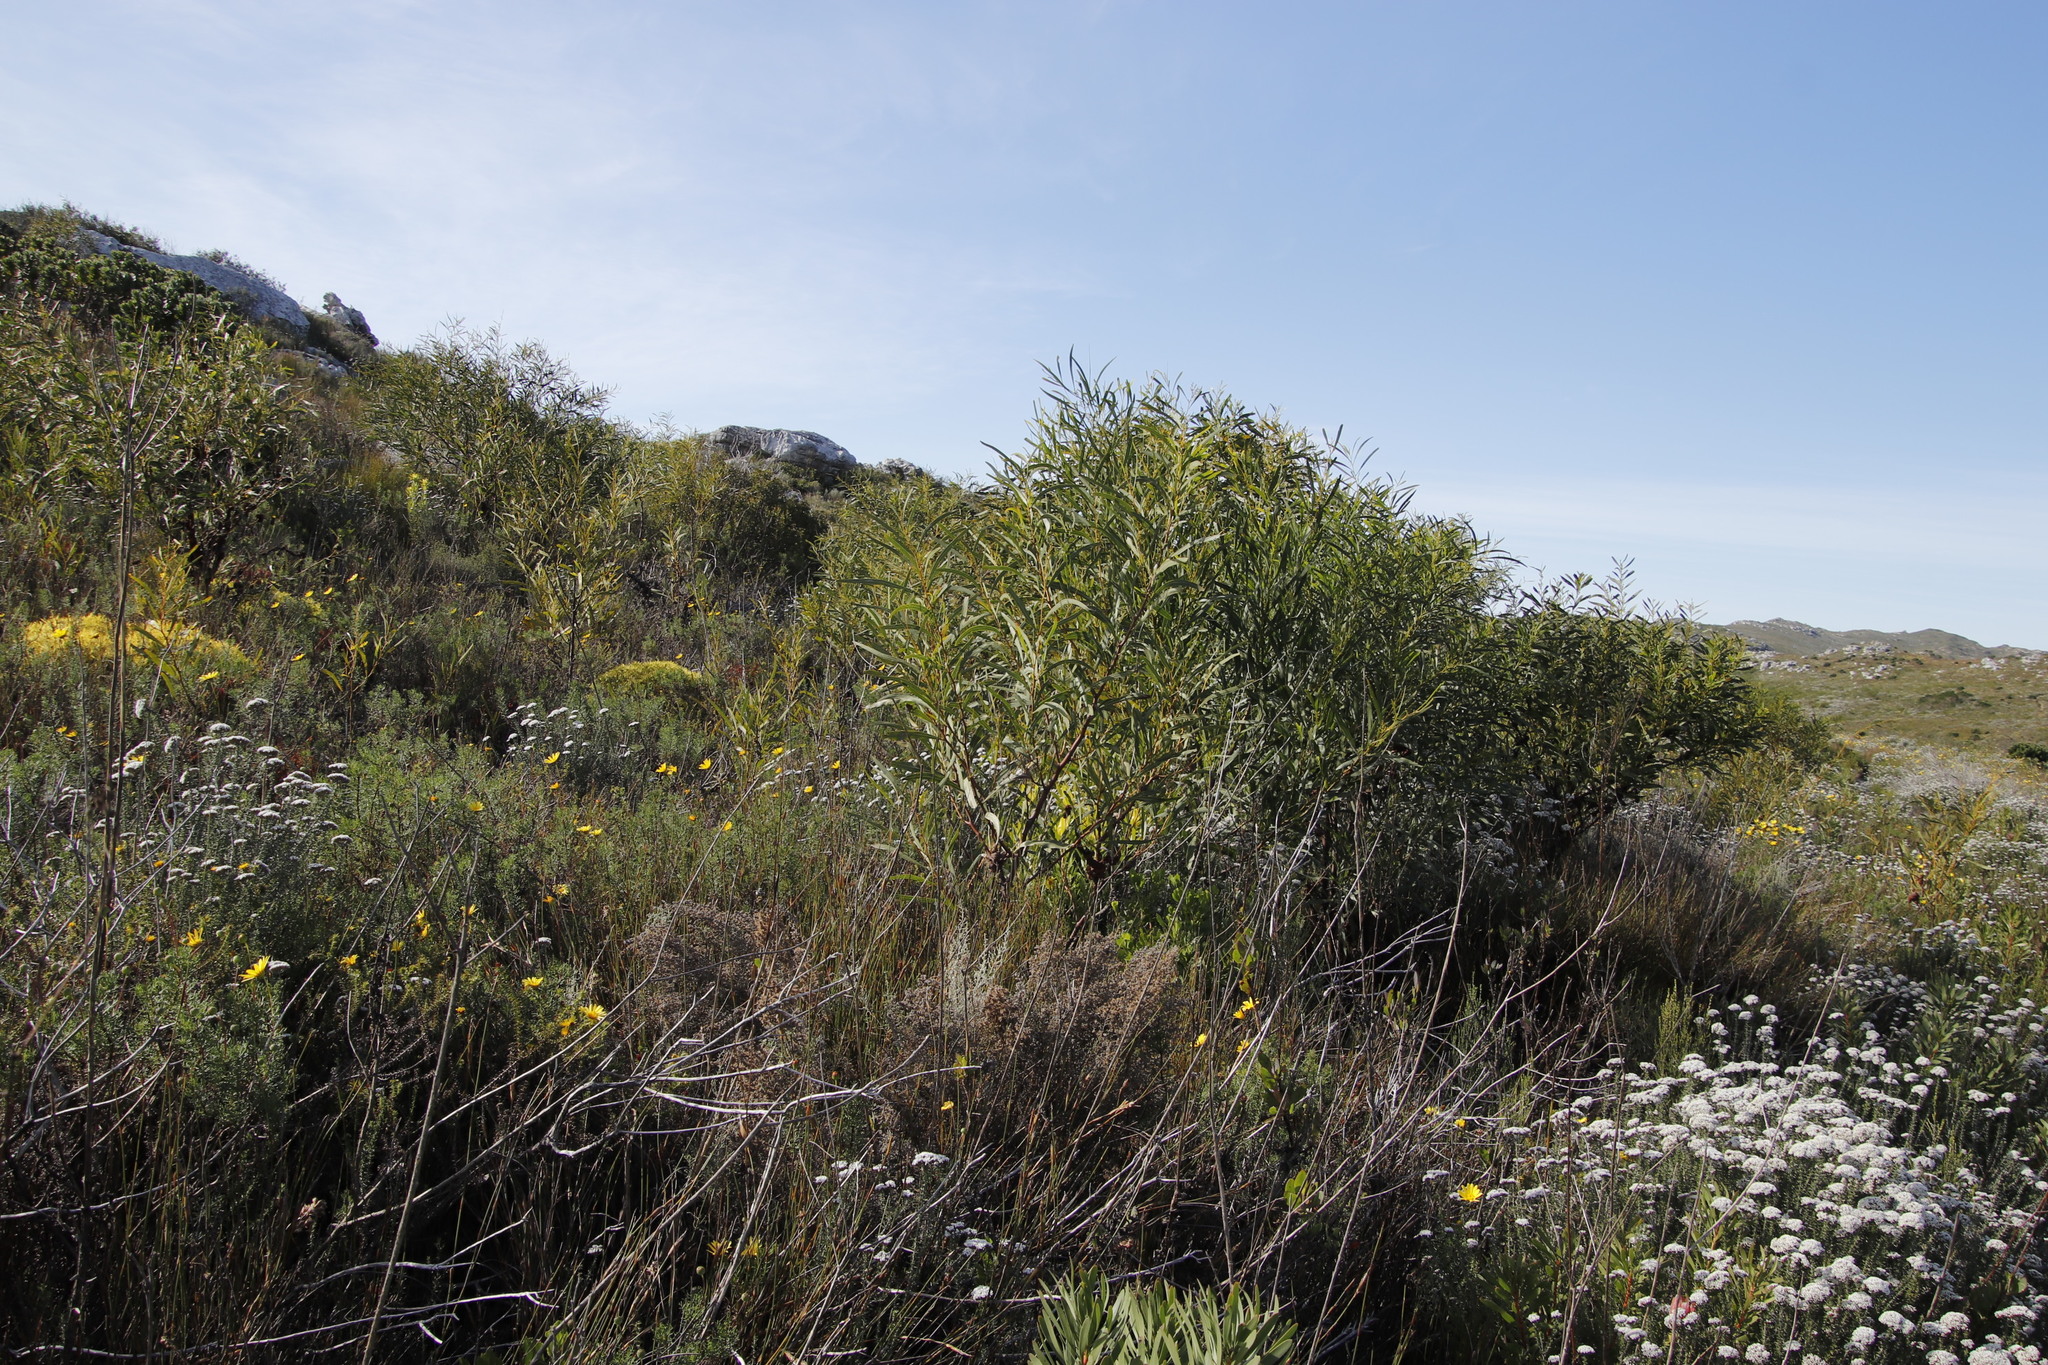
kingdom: Plantae
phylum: Tracheophyta
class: Magnoliopsida
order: Fabales
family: Fabaceae
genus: Acacia
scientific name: Acacia saligna
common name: Orange wattle
